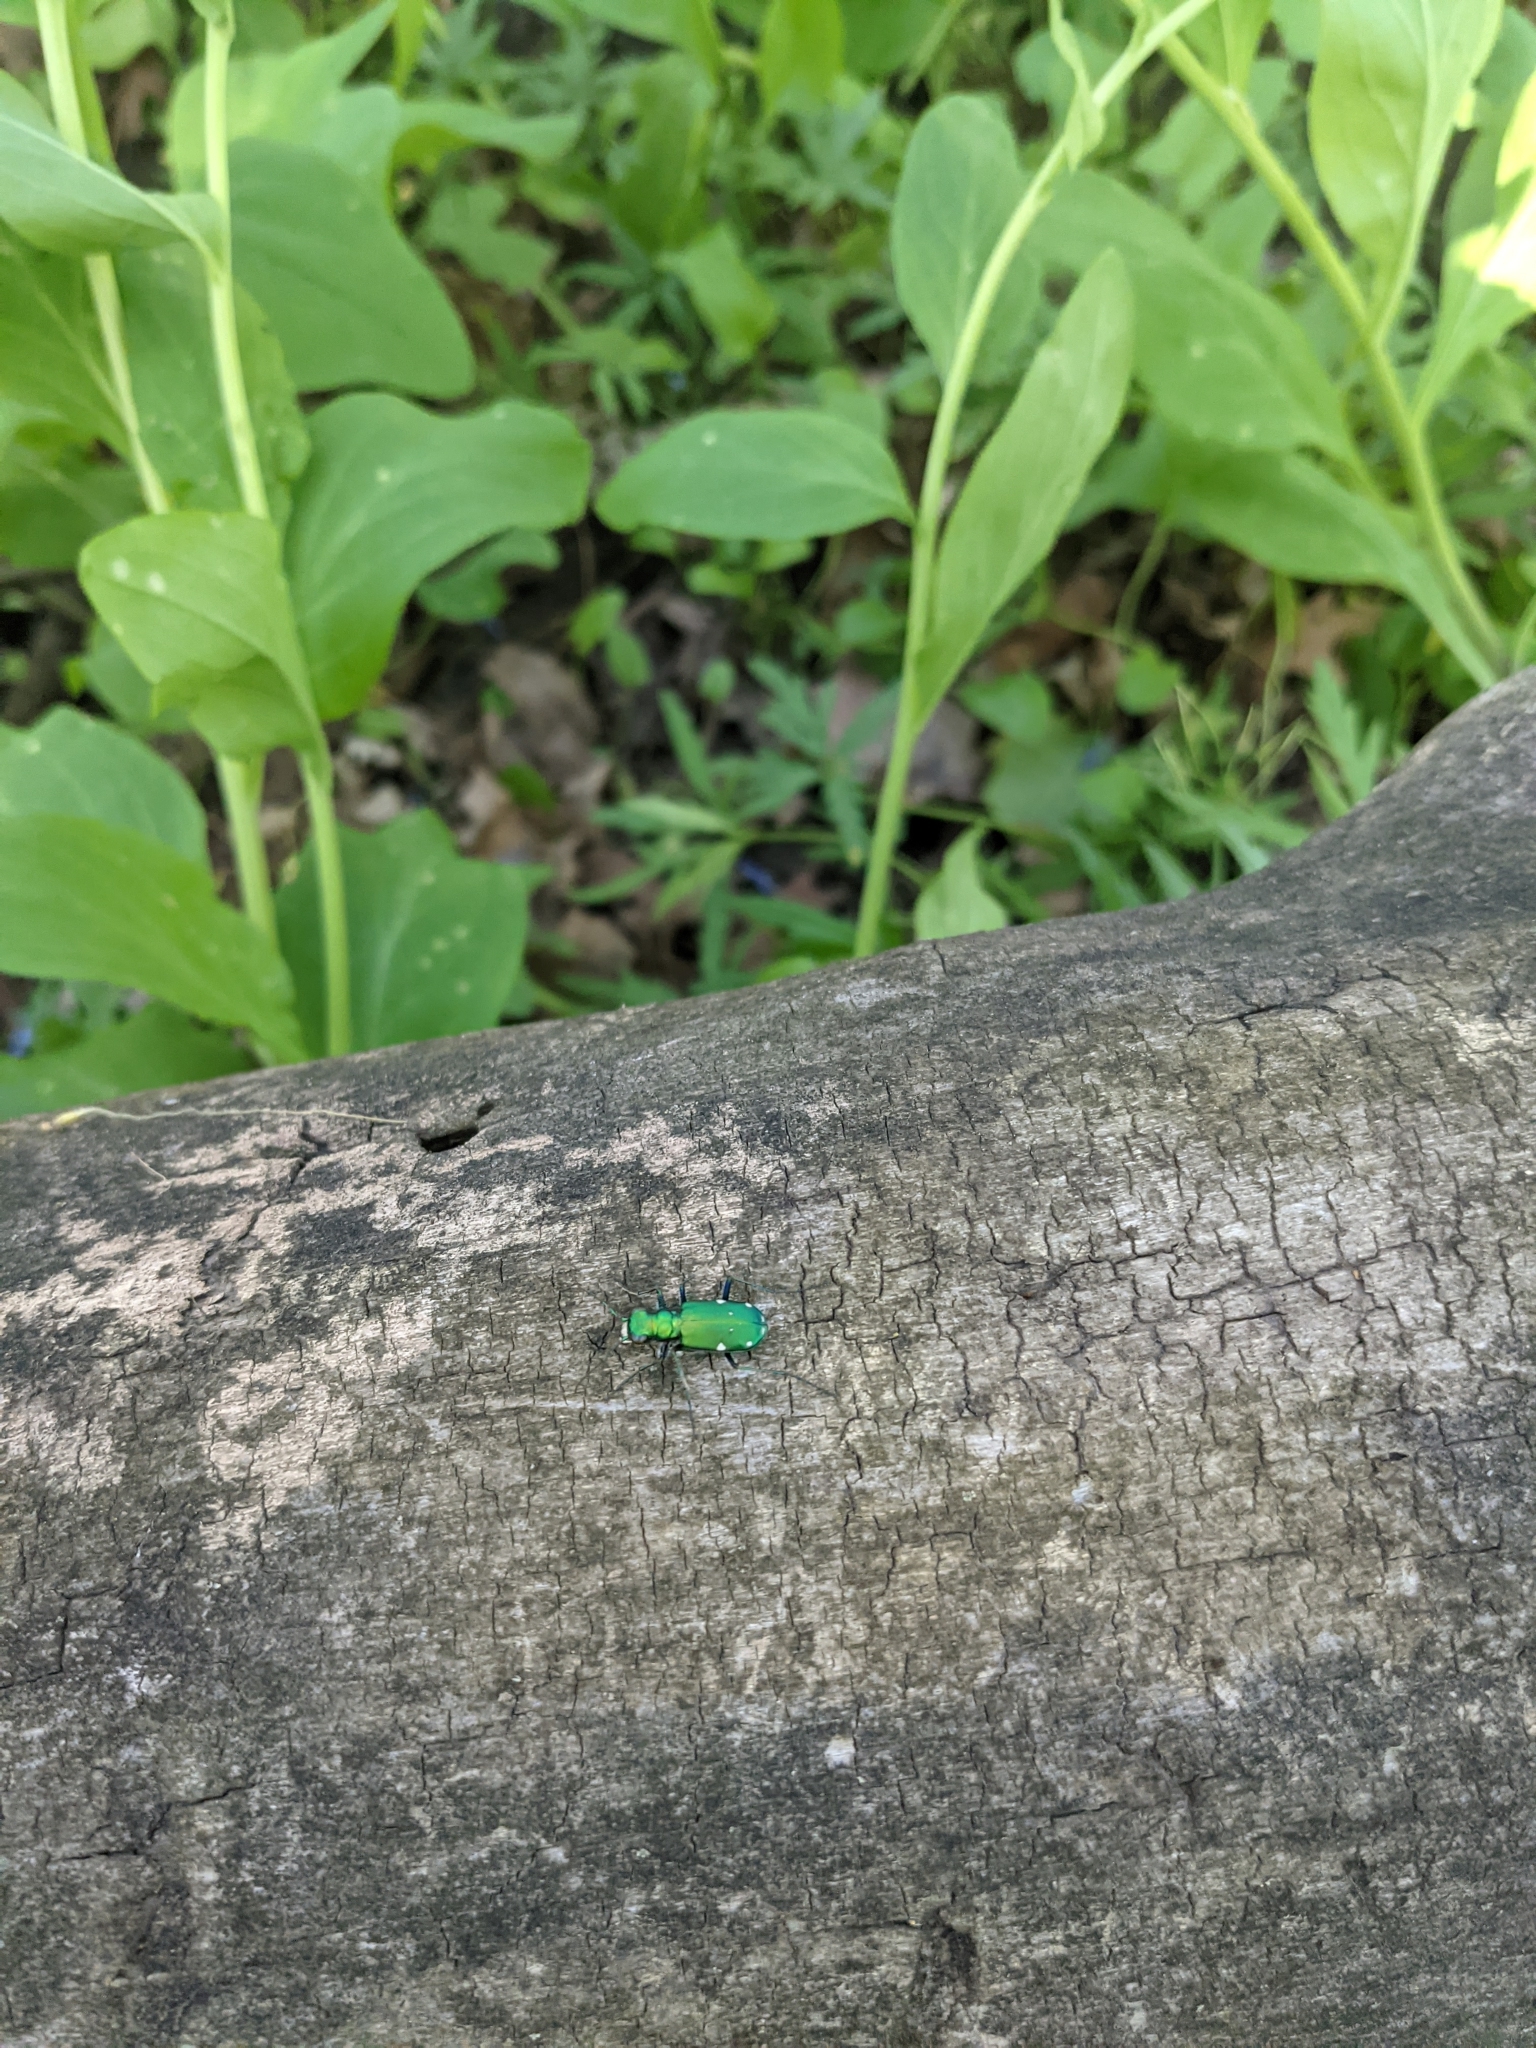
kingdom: Animalia
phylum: Arthropoda
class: Insecta
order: Coleoptera
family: Carabidae
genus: Cicindela
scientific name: Cicindela sexguttata
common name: Six-spotted tiger beetle
